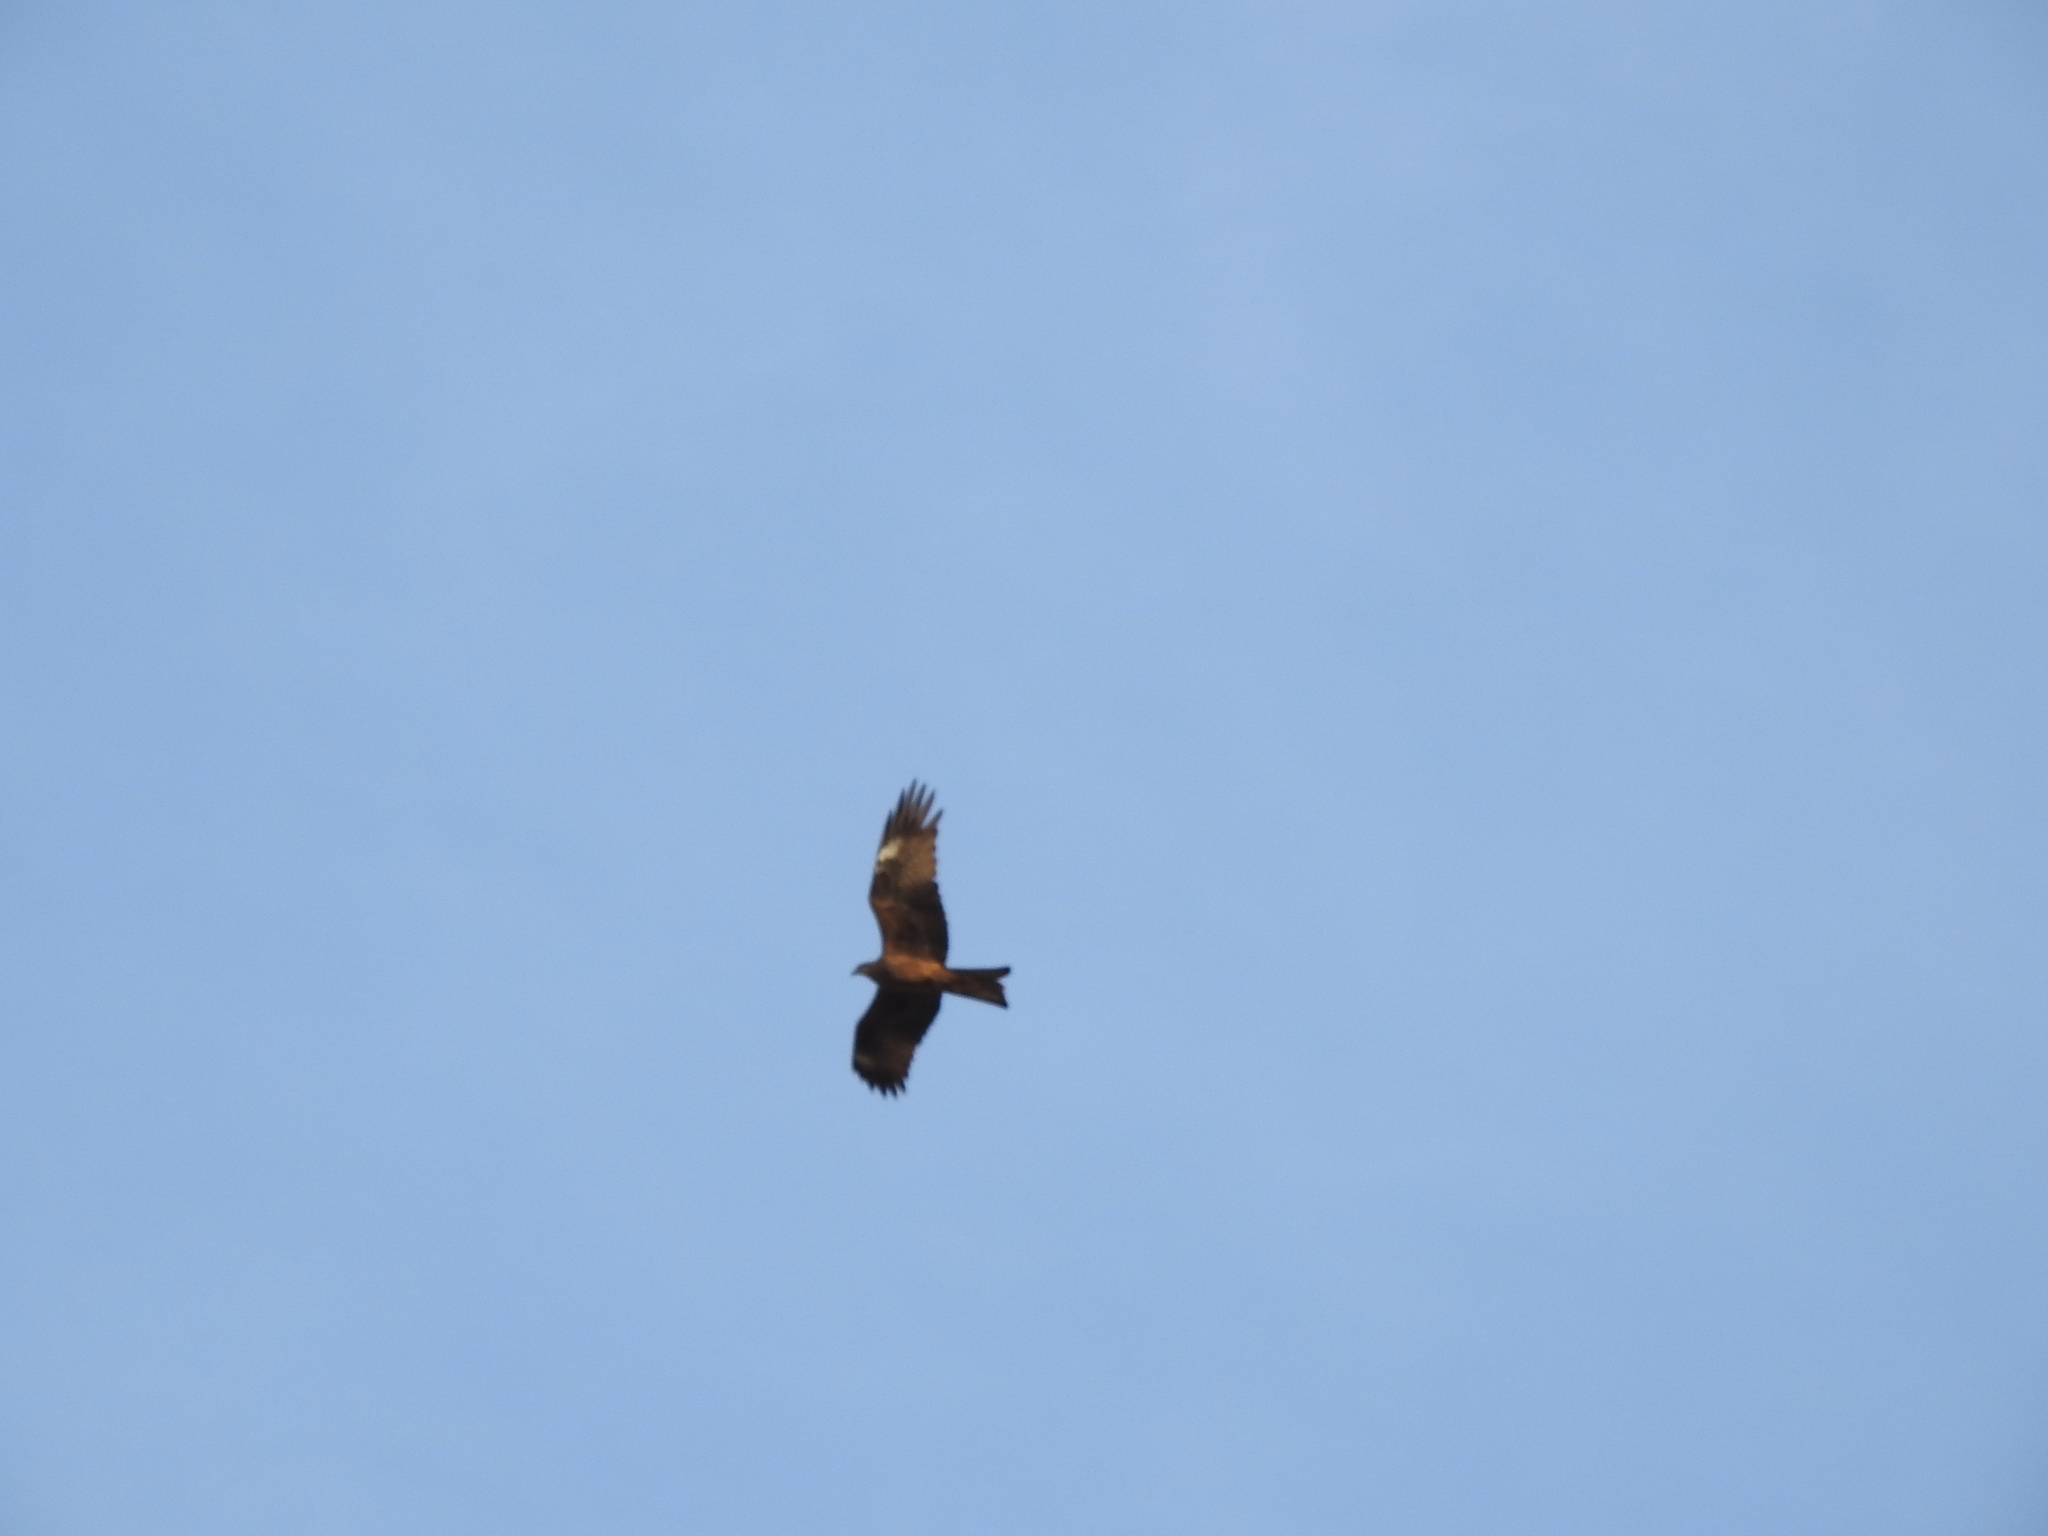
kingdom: Animalia
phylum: Chordata
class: Aves
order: Accipitriformes
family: Accipitridae
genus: Milvus
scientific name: Milvus migrans
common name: Black kite
